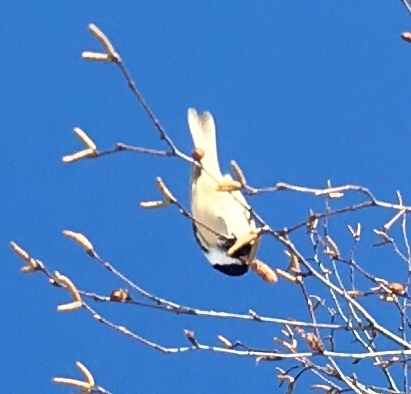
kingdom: Animalia
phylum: Chordata
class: Aves
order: Passeriformes
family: Paridae
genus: Poecile
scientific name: Poecile atricapillus
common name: Black-capped chickadee
